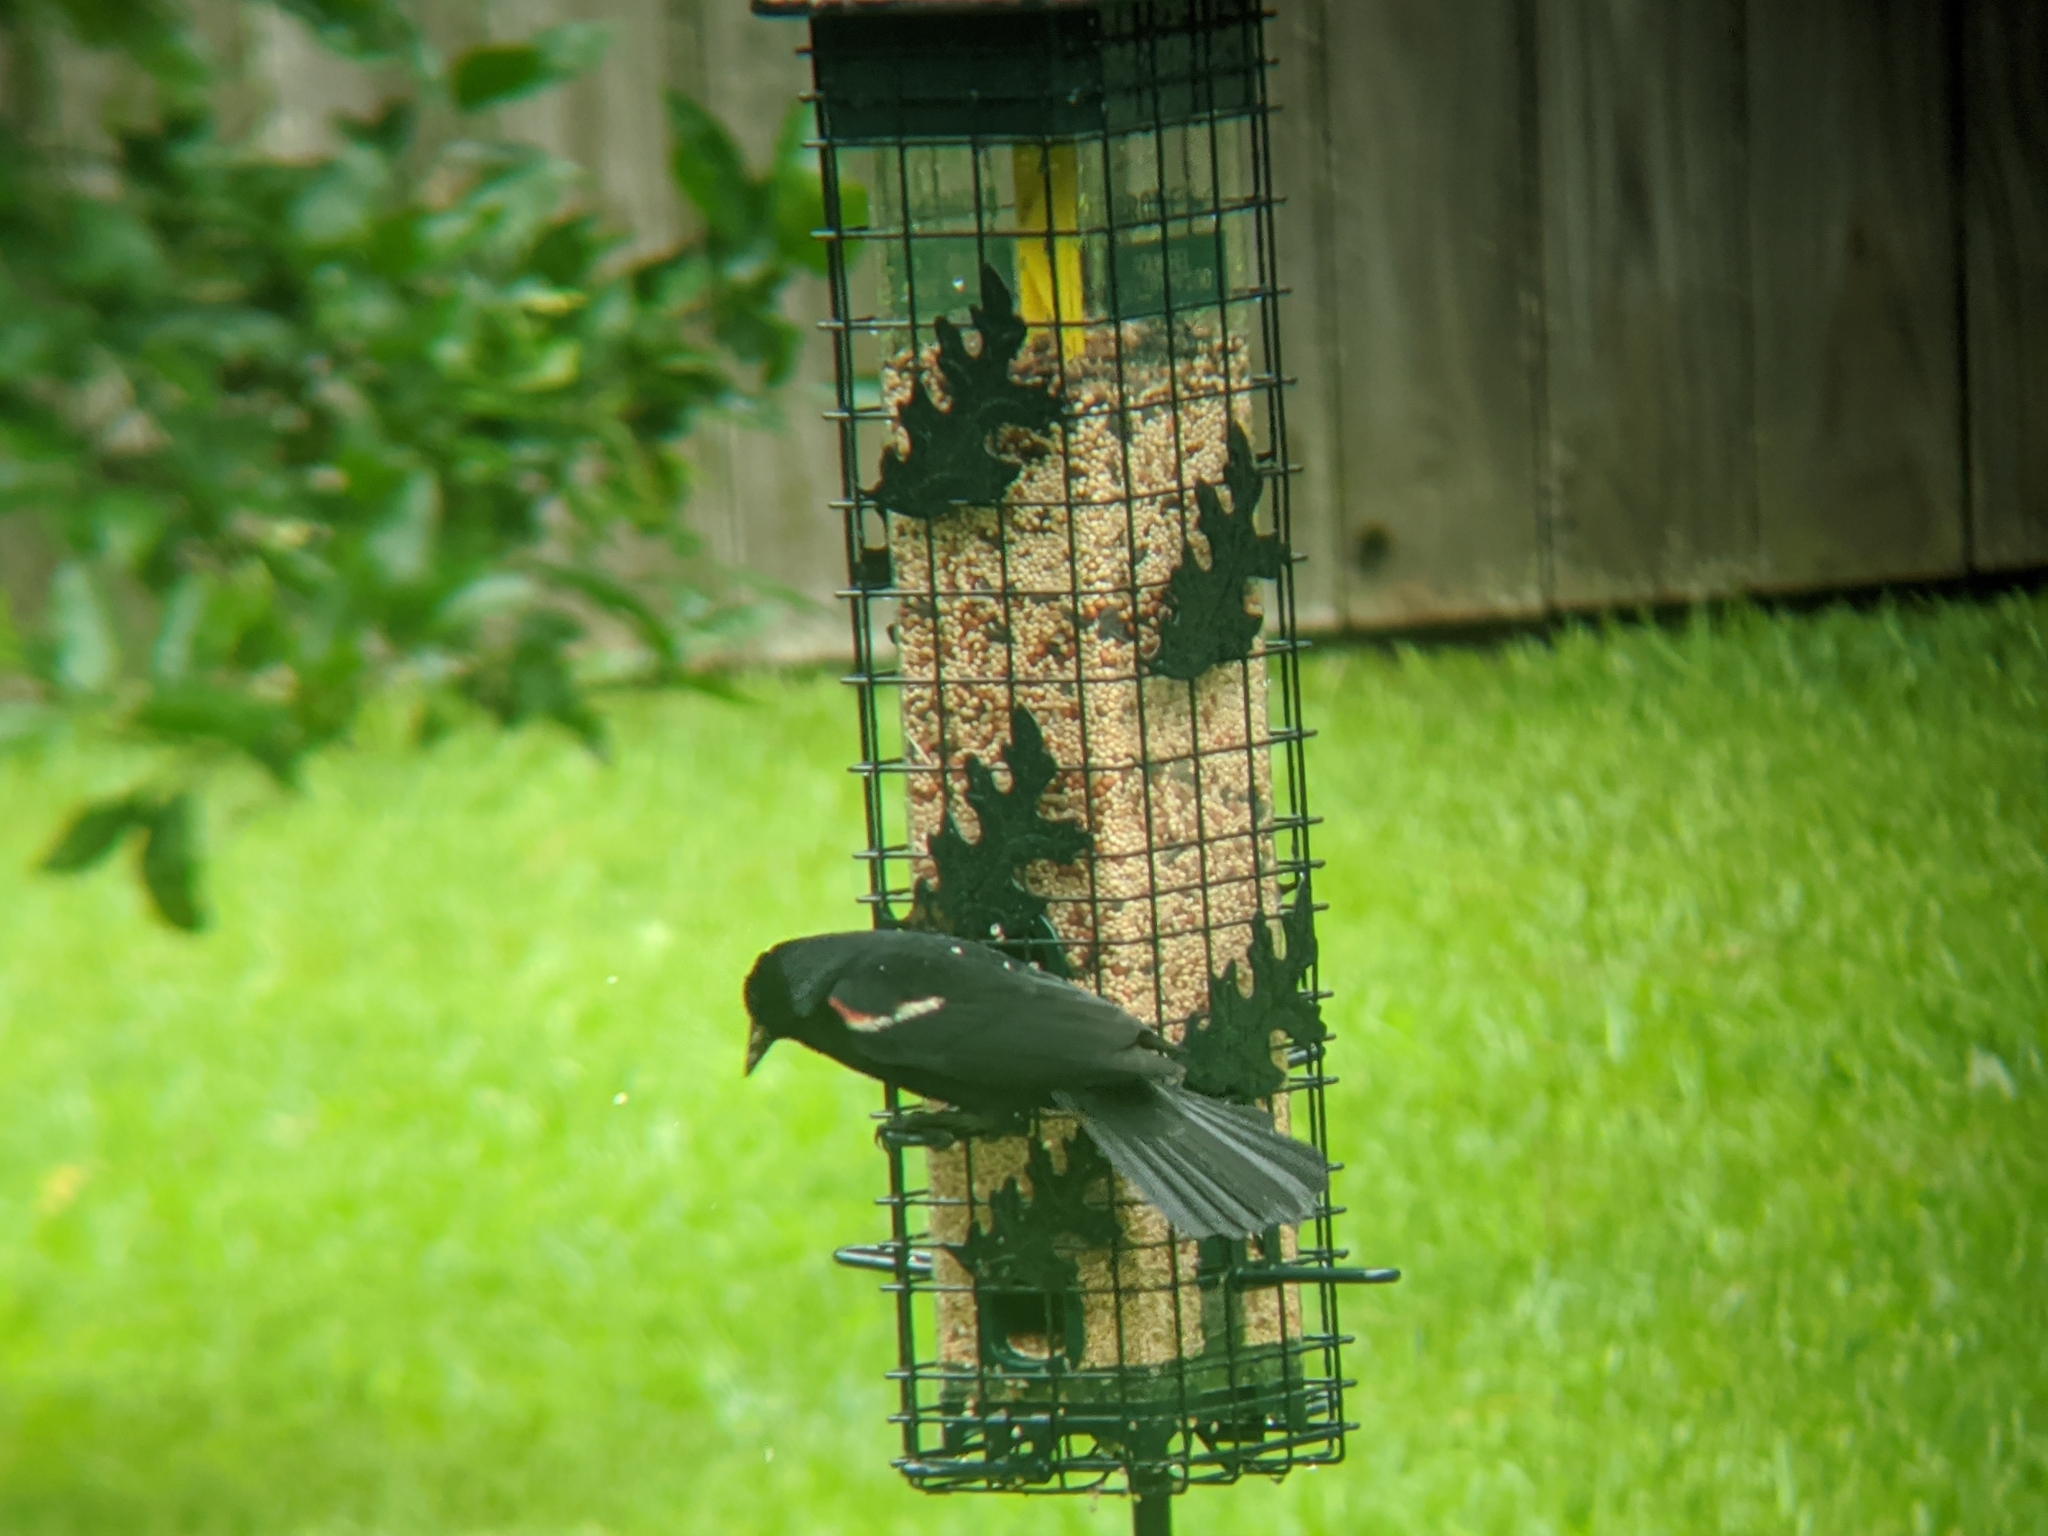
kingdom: Animalia
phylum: Chordata
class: Aves
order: Passeriformes
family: Icteridae
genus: Agelaius
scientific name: Agelaius phoeniceus
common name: Red-winged blackbird
